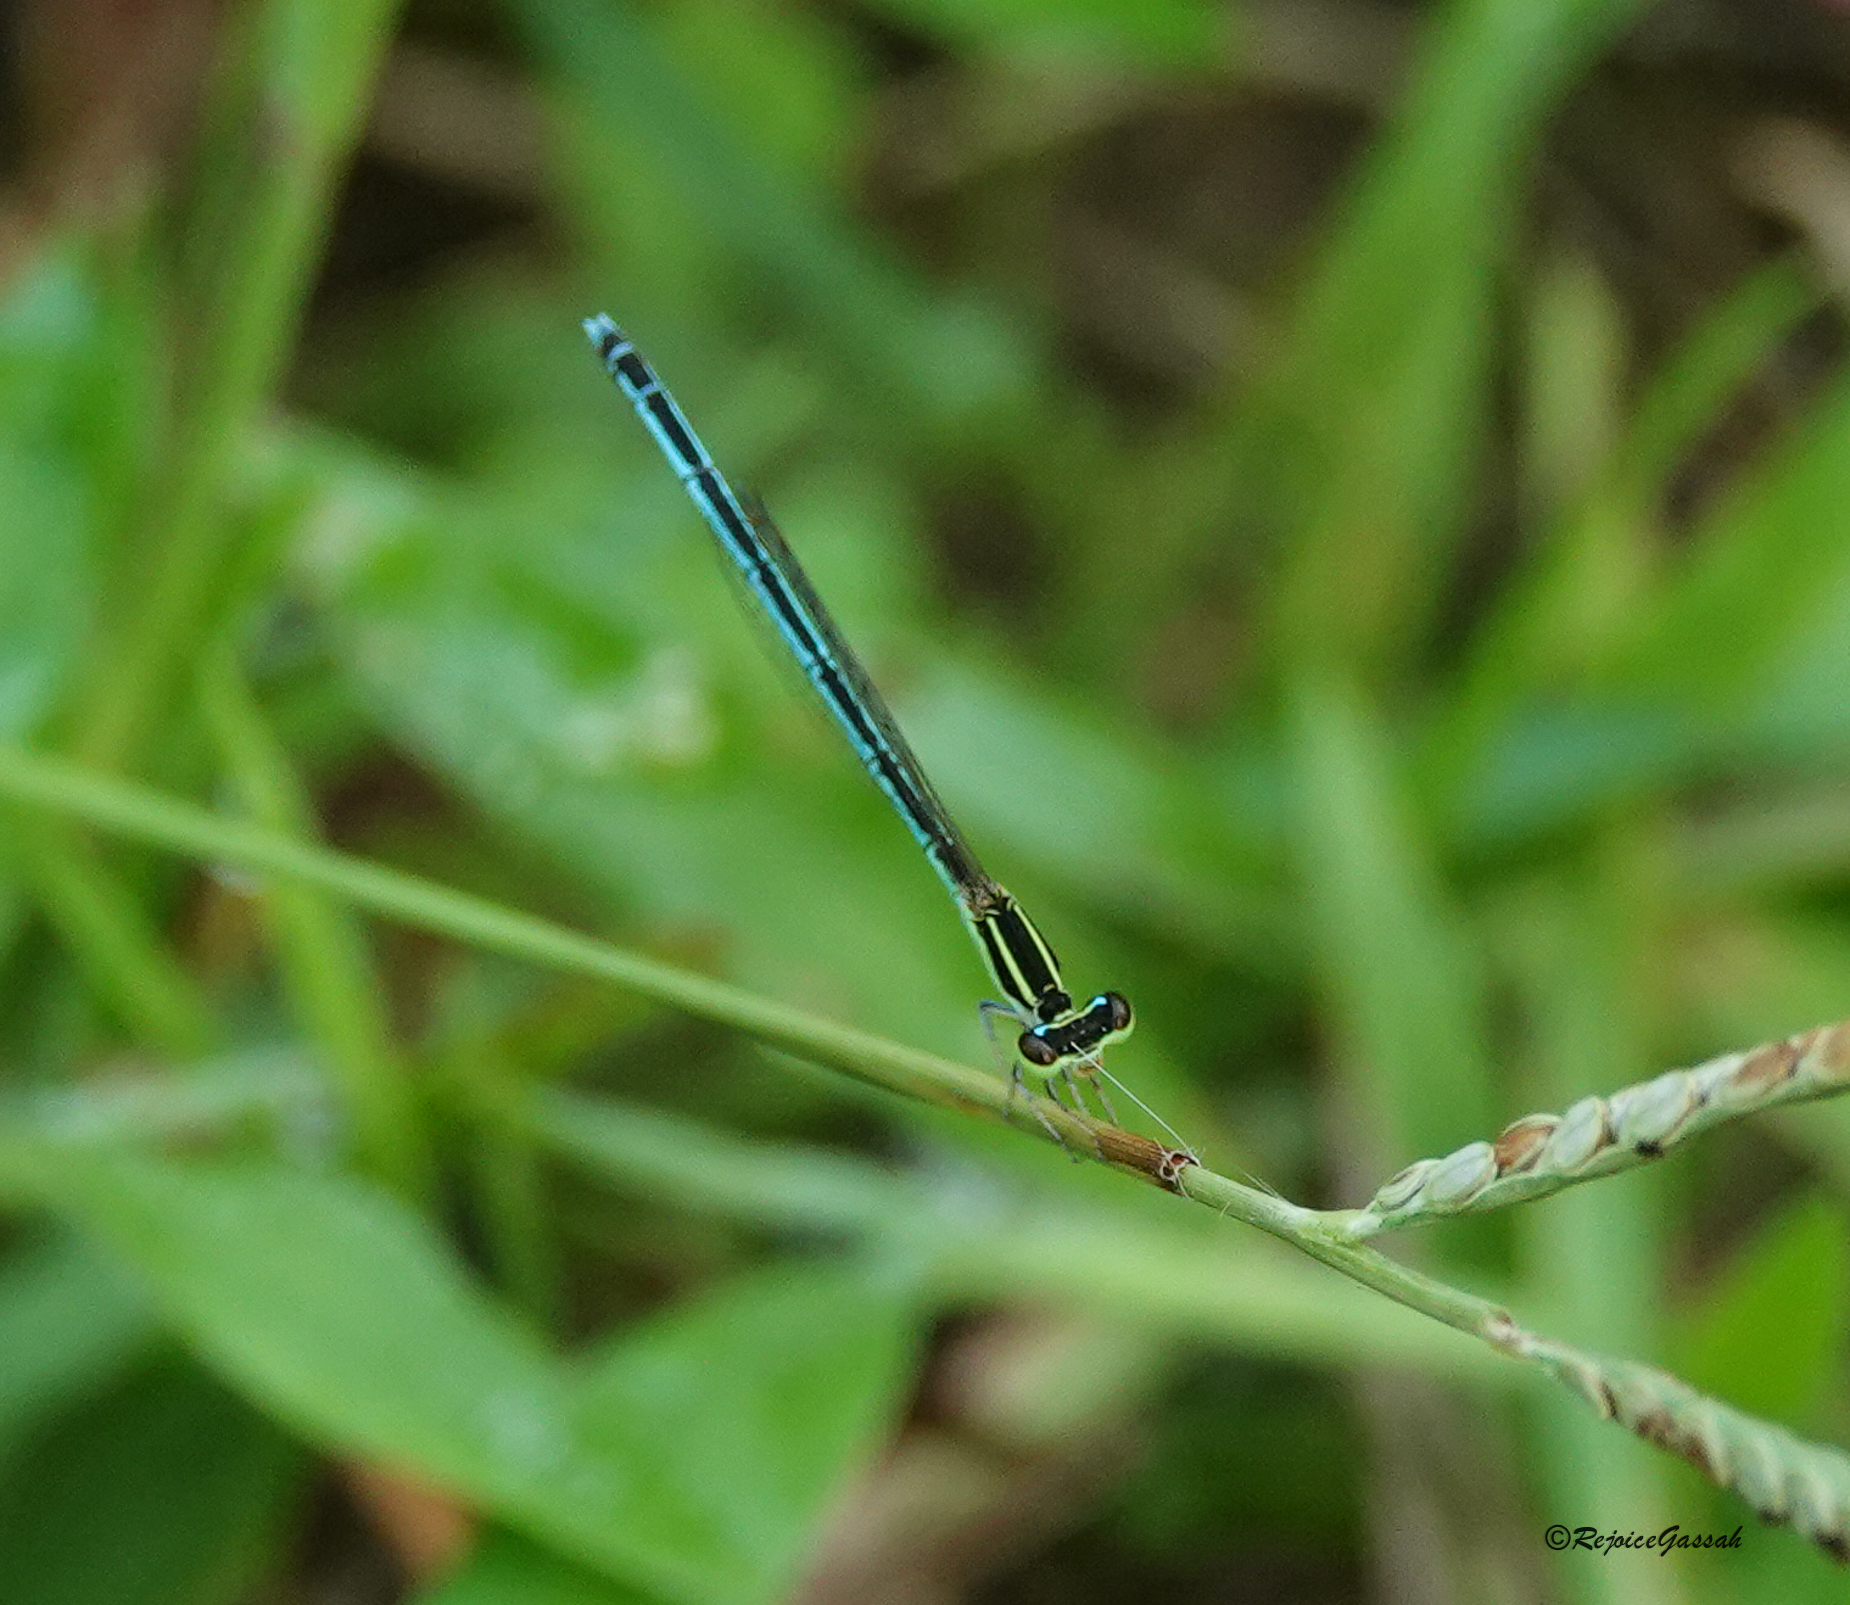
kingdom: Animalia
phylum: Arthropoda
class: Insecta
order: Odonata
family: Coenagrionidae
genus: Agriocnemis
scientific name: Agriocnemis lacteola
